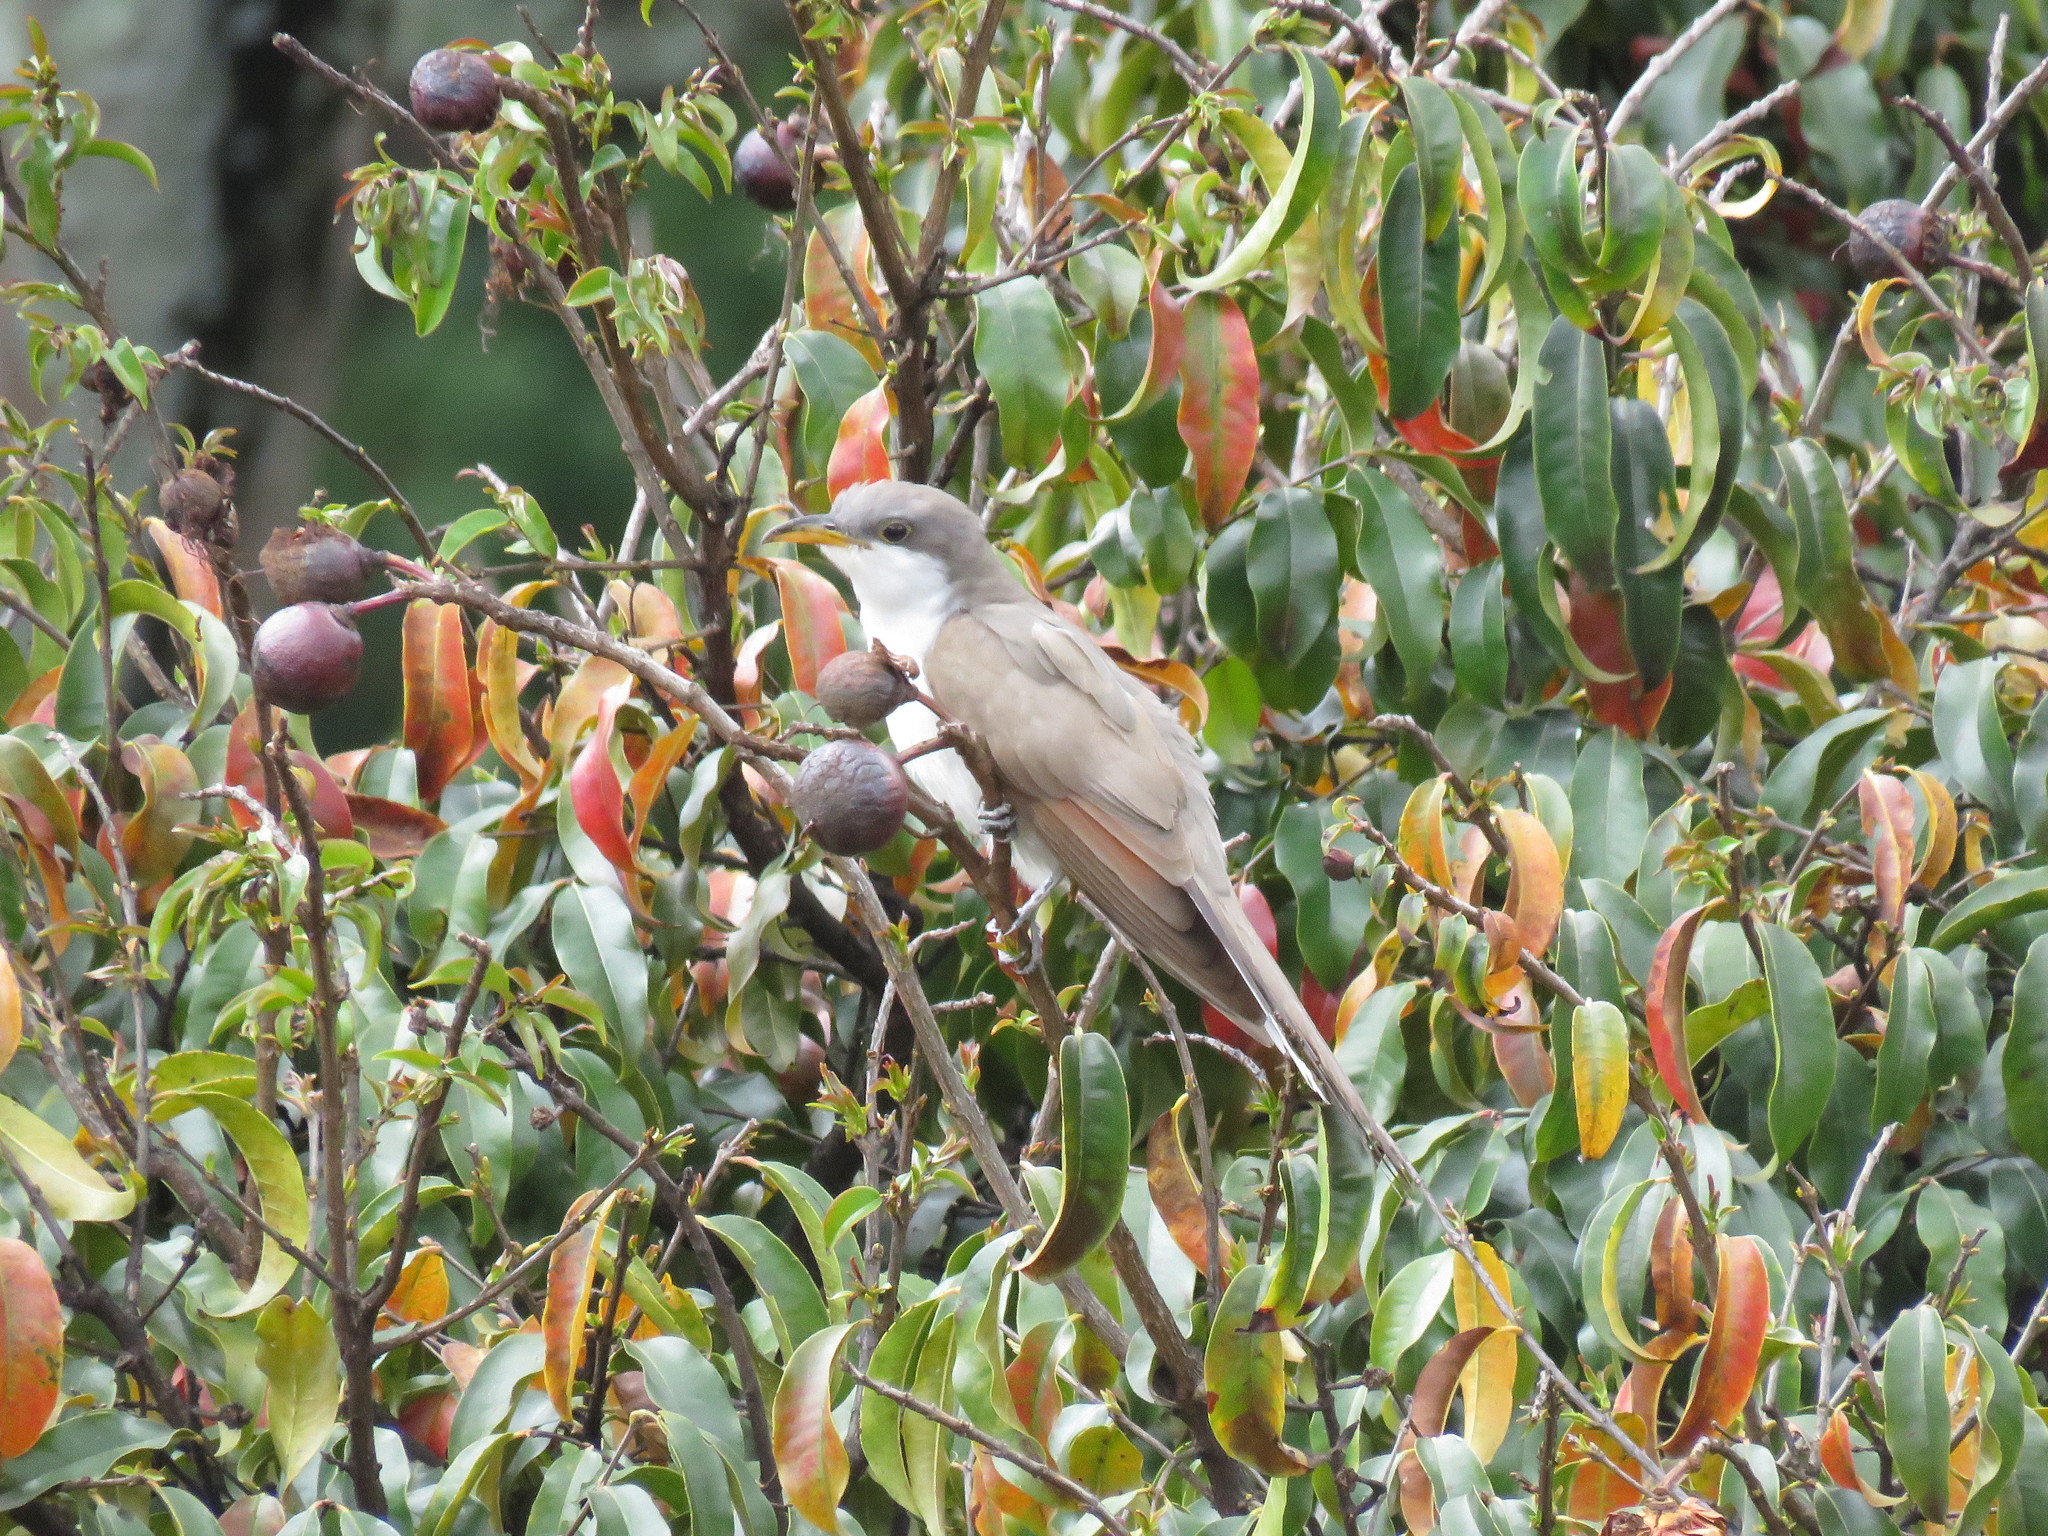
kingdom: Animalia
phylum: Chordata
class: Aves
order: Cuculiformes
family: Cuculidae
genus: Coccyzus
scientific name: Coccyzus americanus
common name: Yellow-billed cuckoo
